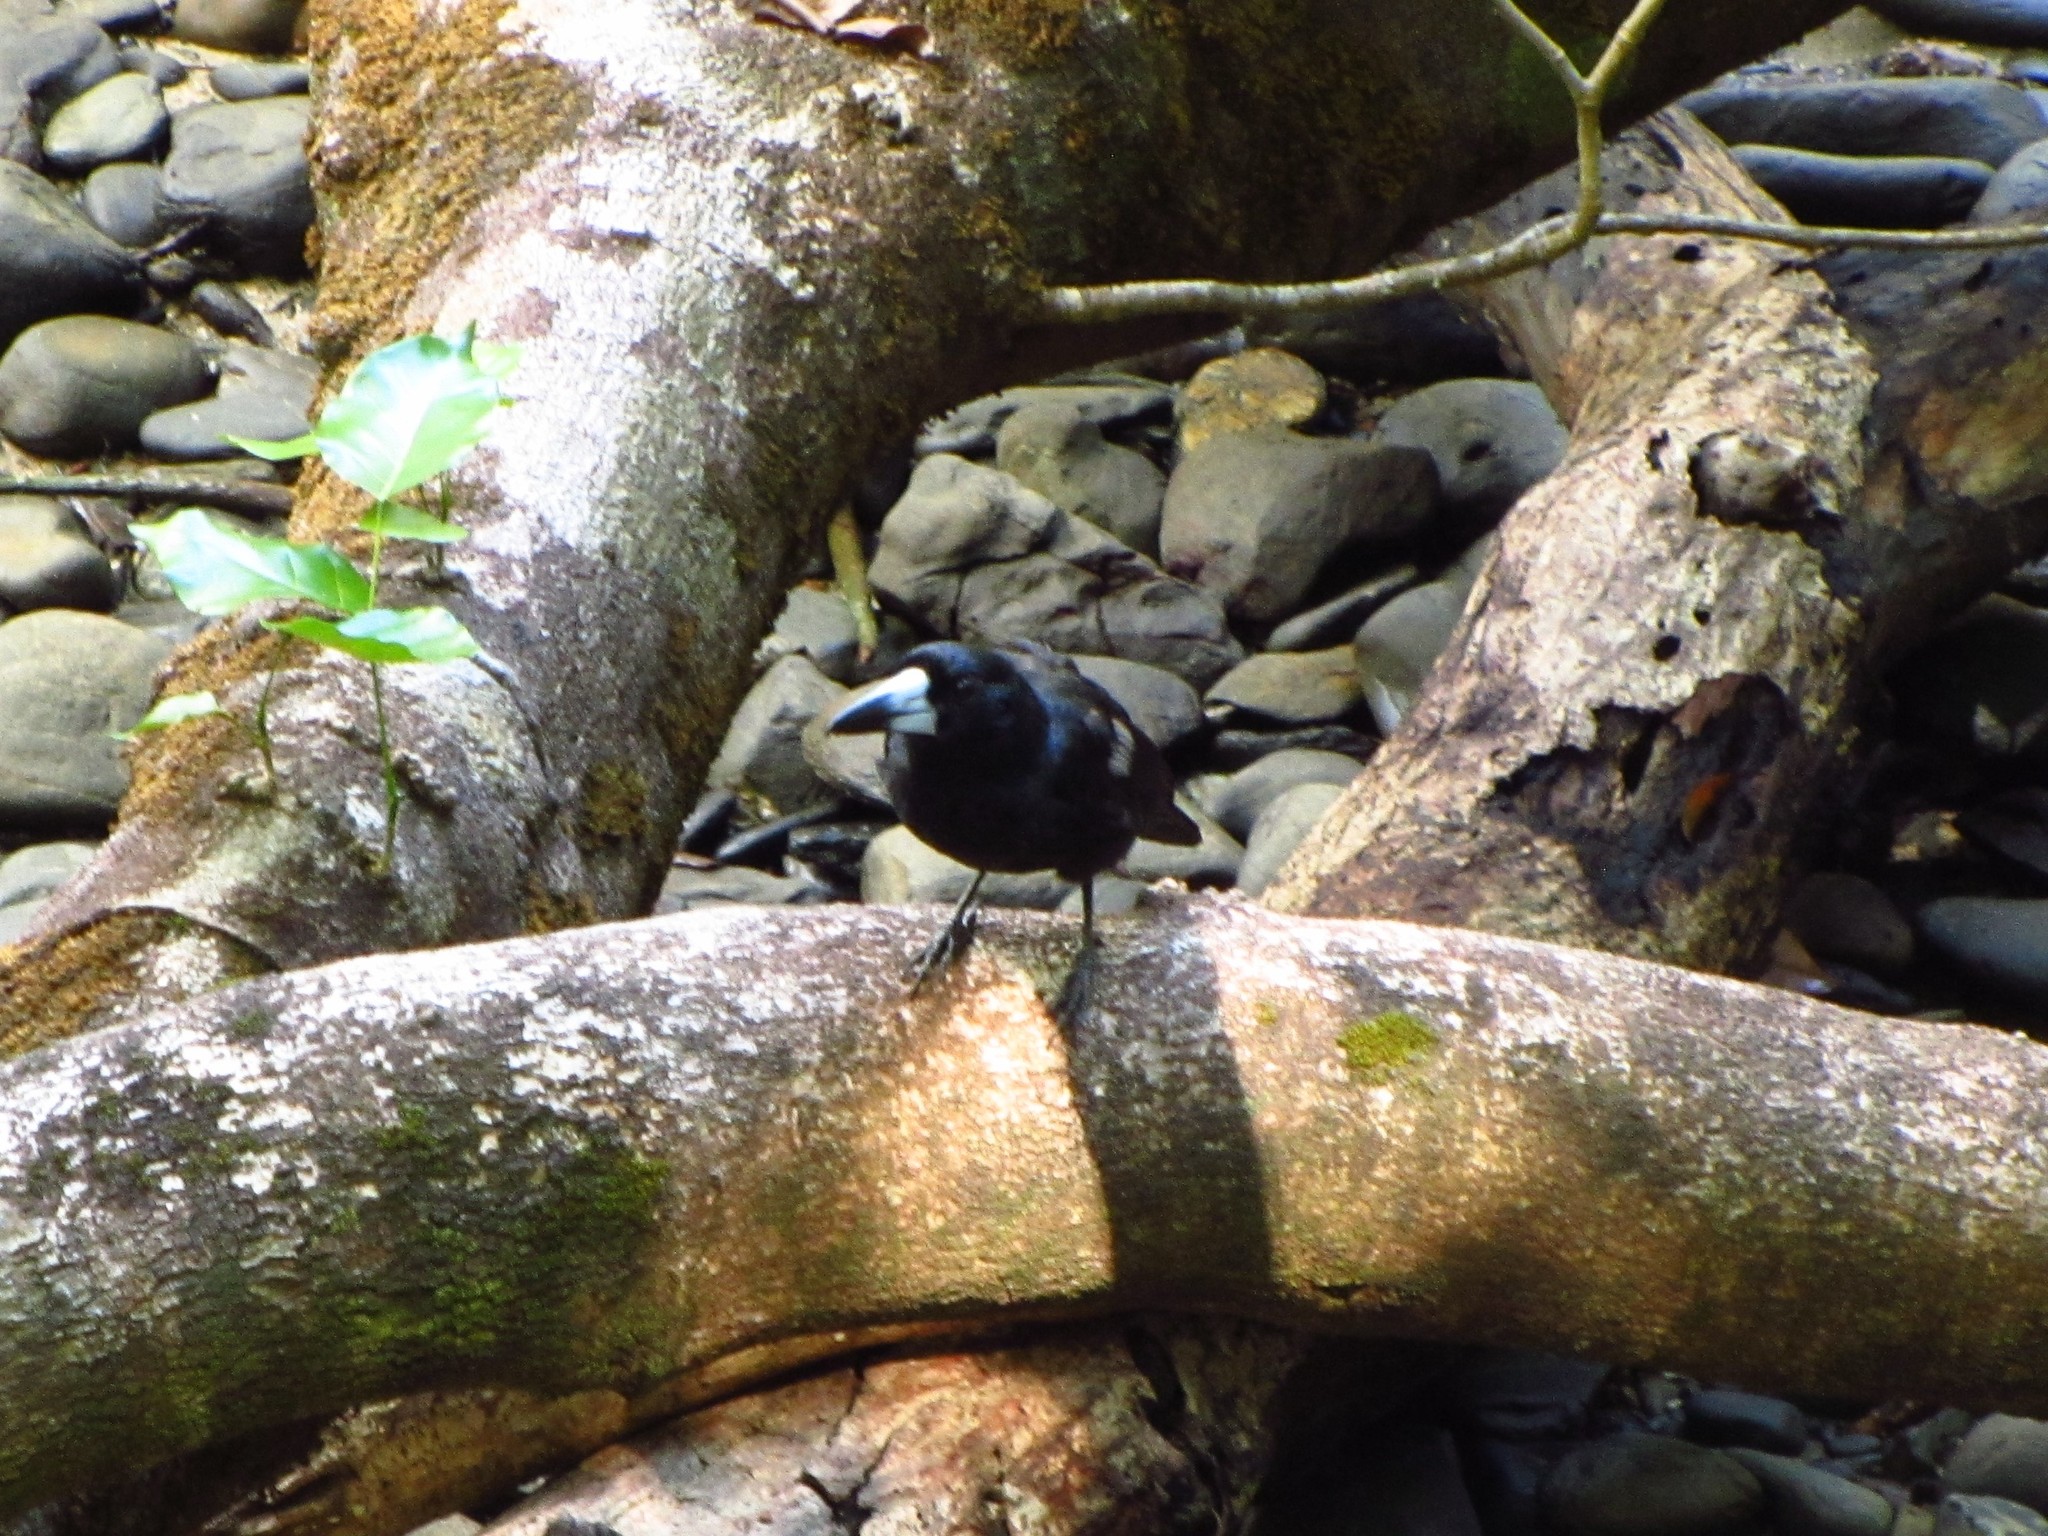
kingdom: Animalia
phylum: Chordata
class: Aves
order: Passeriformes
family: Artamidae
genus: Melloria
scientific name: Melloria quoyi
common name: Black butcherbird
